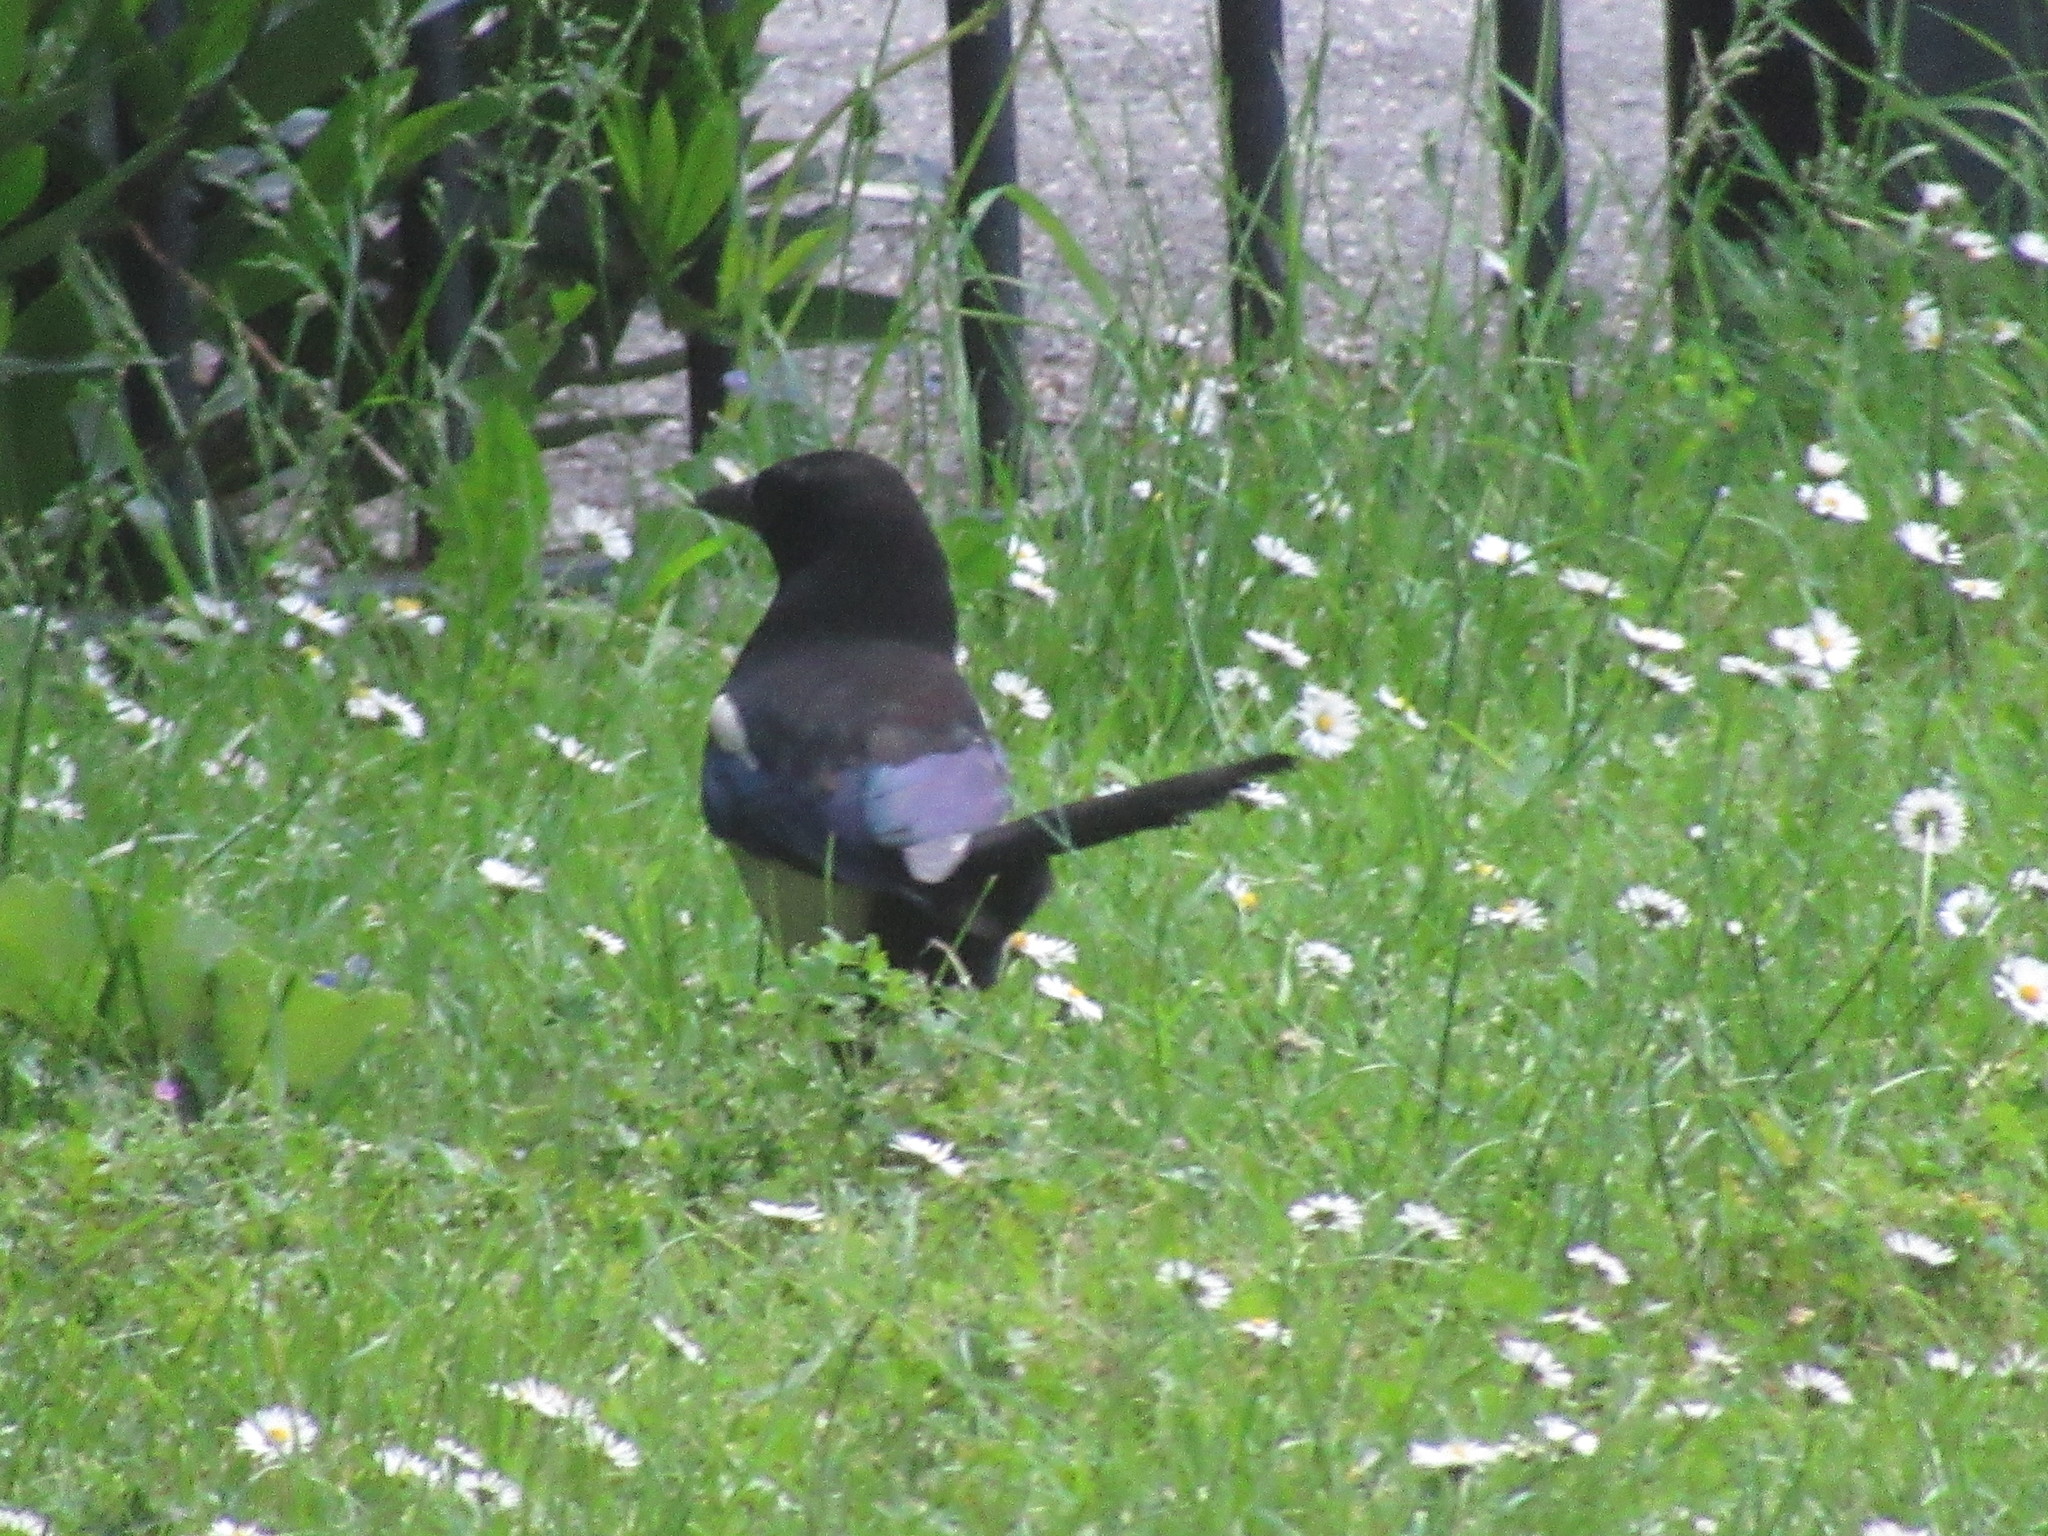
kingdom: Animalia
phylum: Chordata
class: Aves
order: Passeriformes
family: Corvidae
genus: Pica
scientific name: Pica pica
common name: Eurasian magpie
